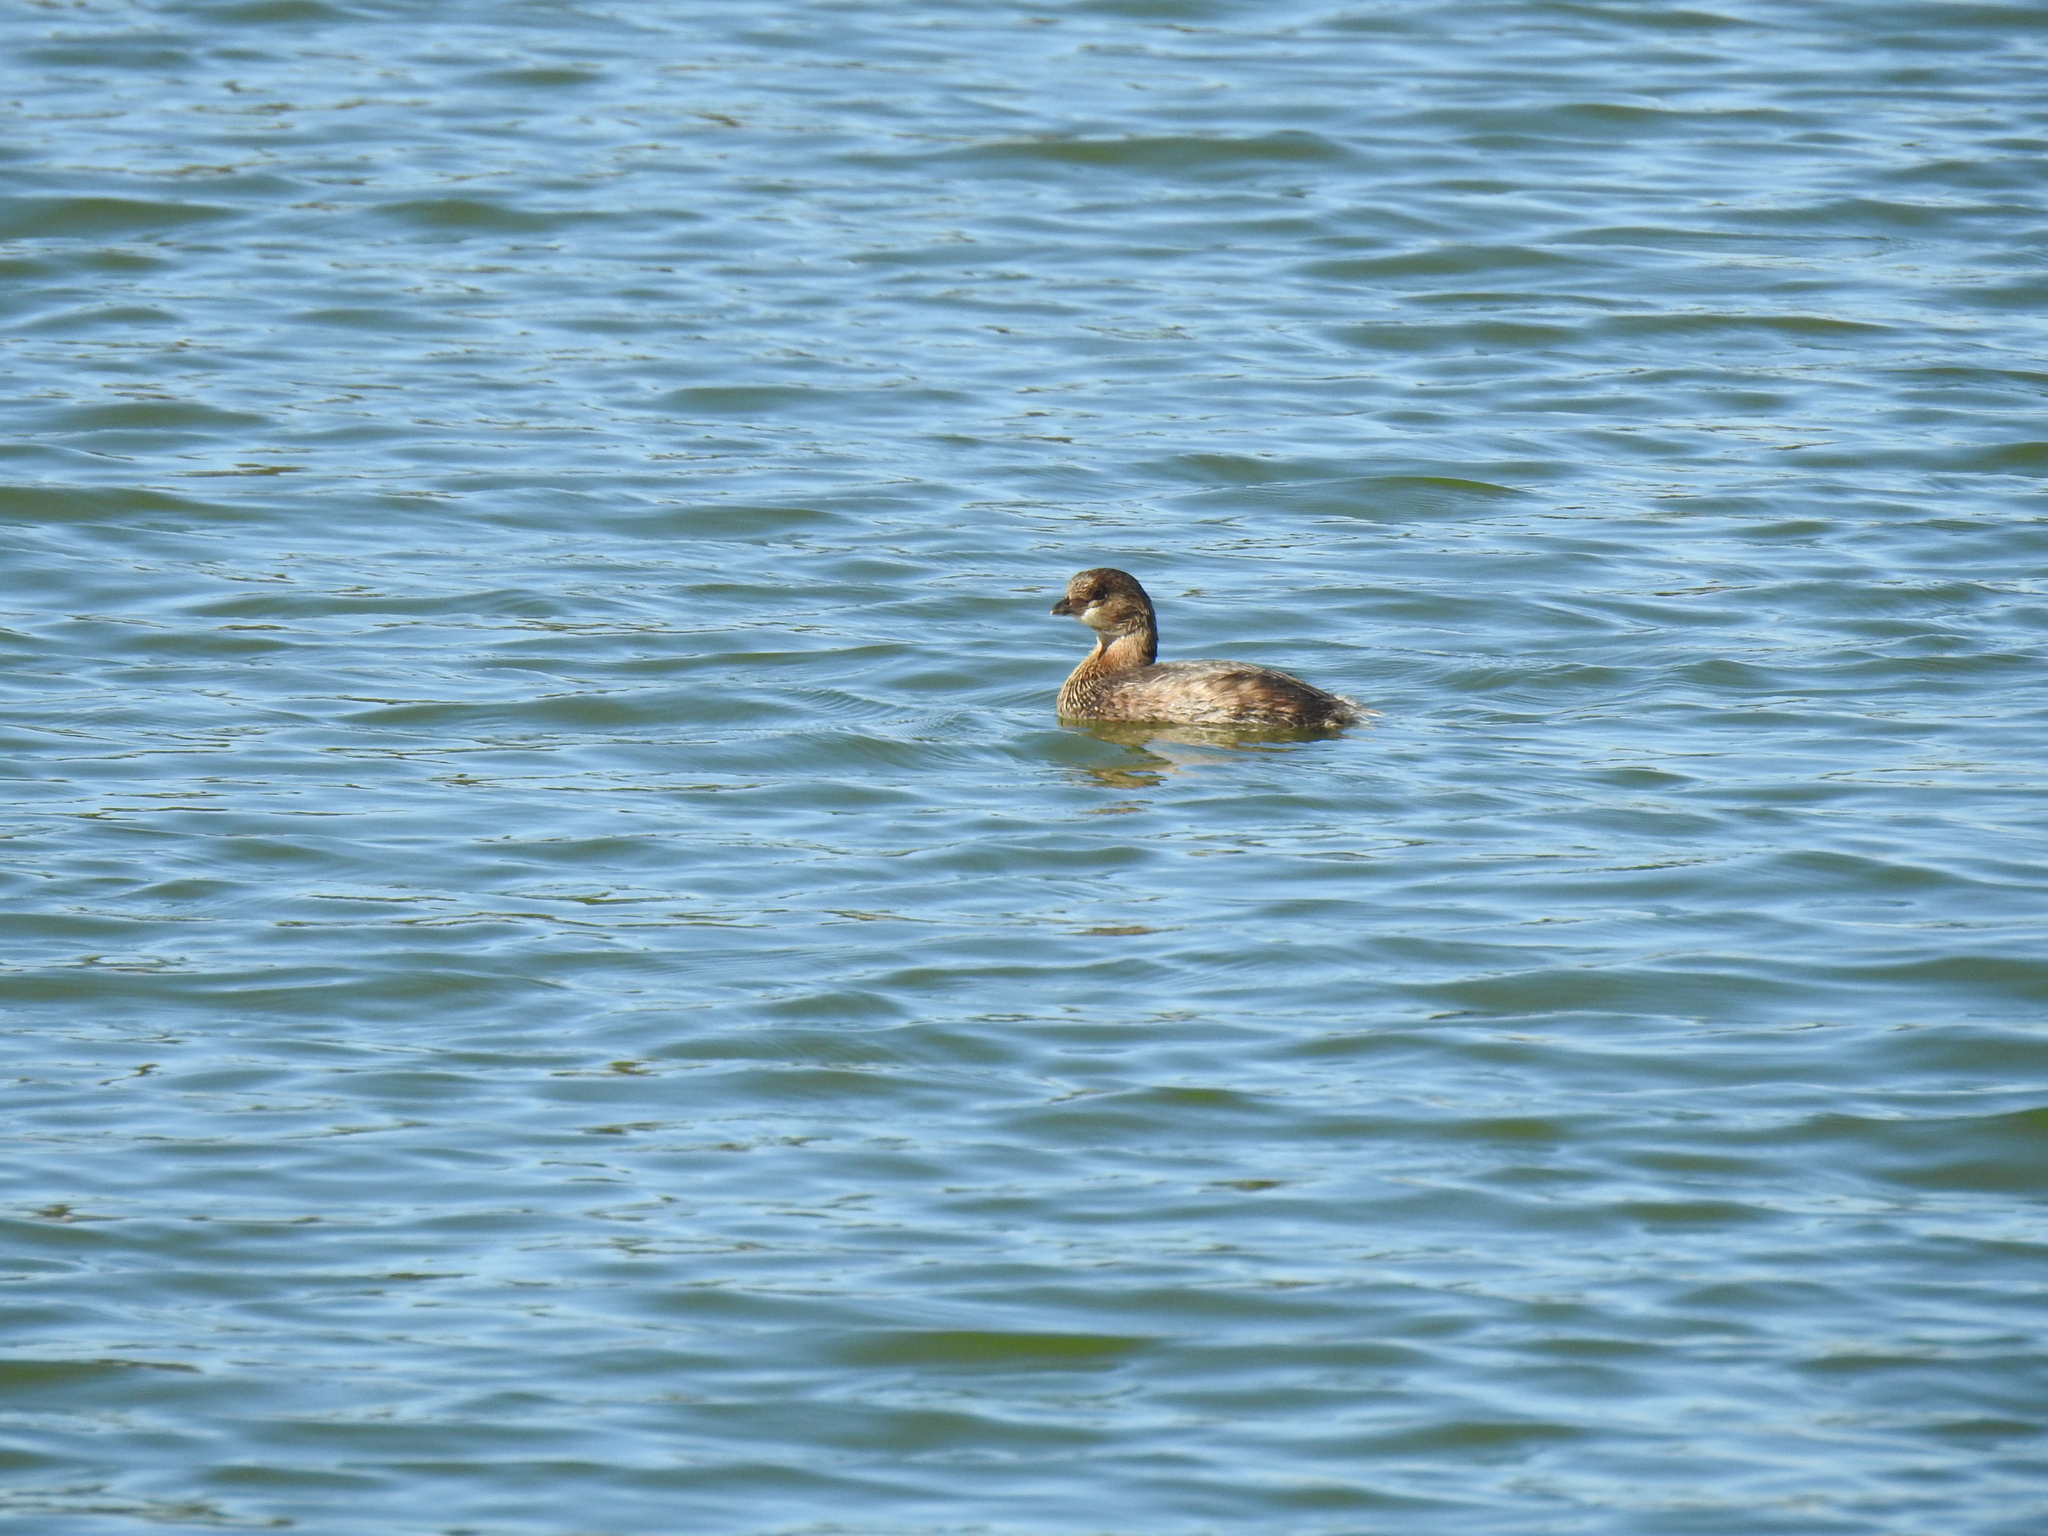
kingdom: Animalia
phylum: Chordata
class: Aves
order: Podicipediformes
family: Podicipedidae
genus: Podilymbus
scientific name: Podilymbus podiceps
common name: Pied-billed grebe
